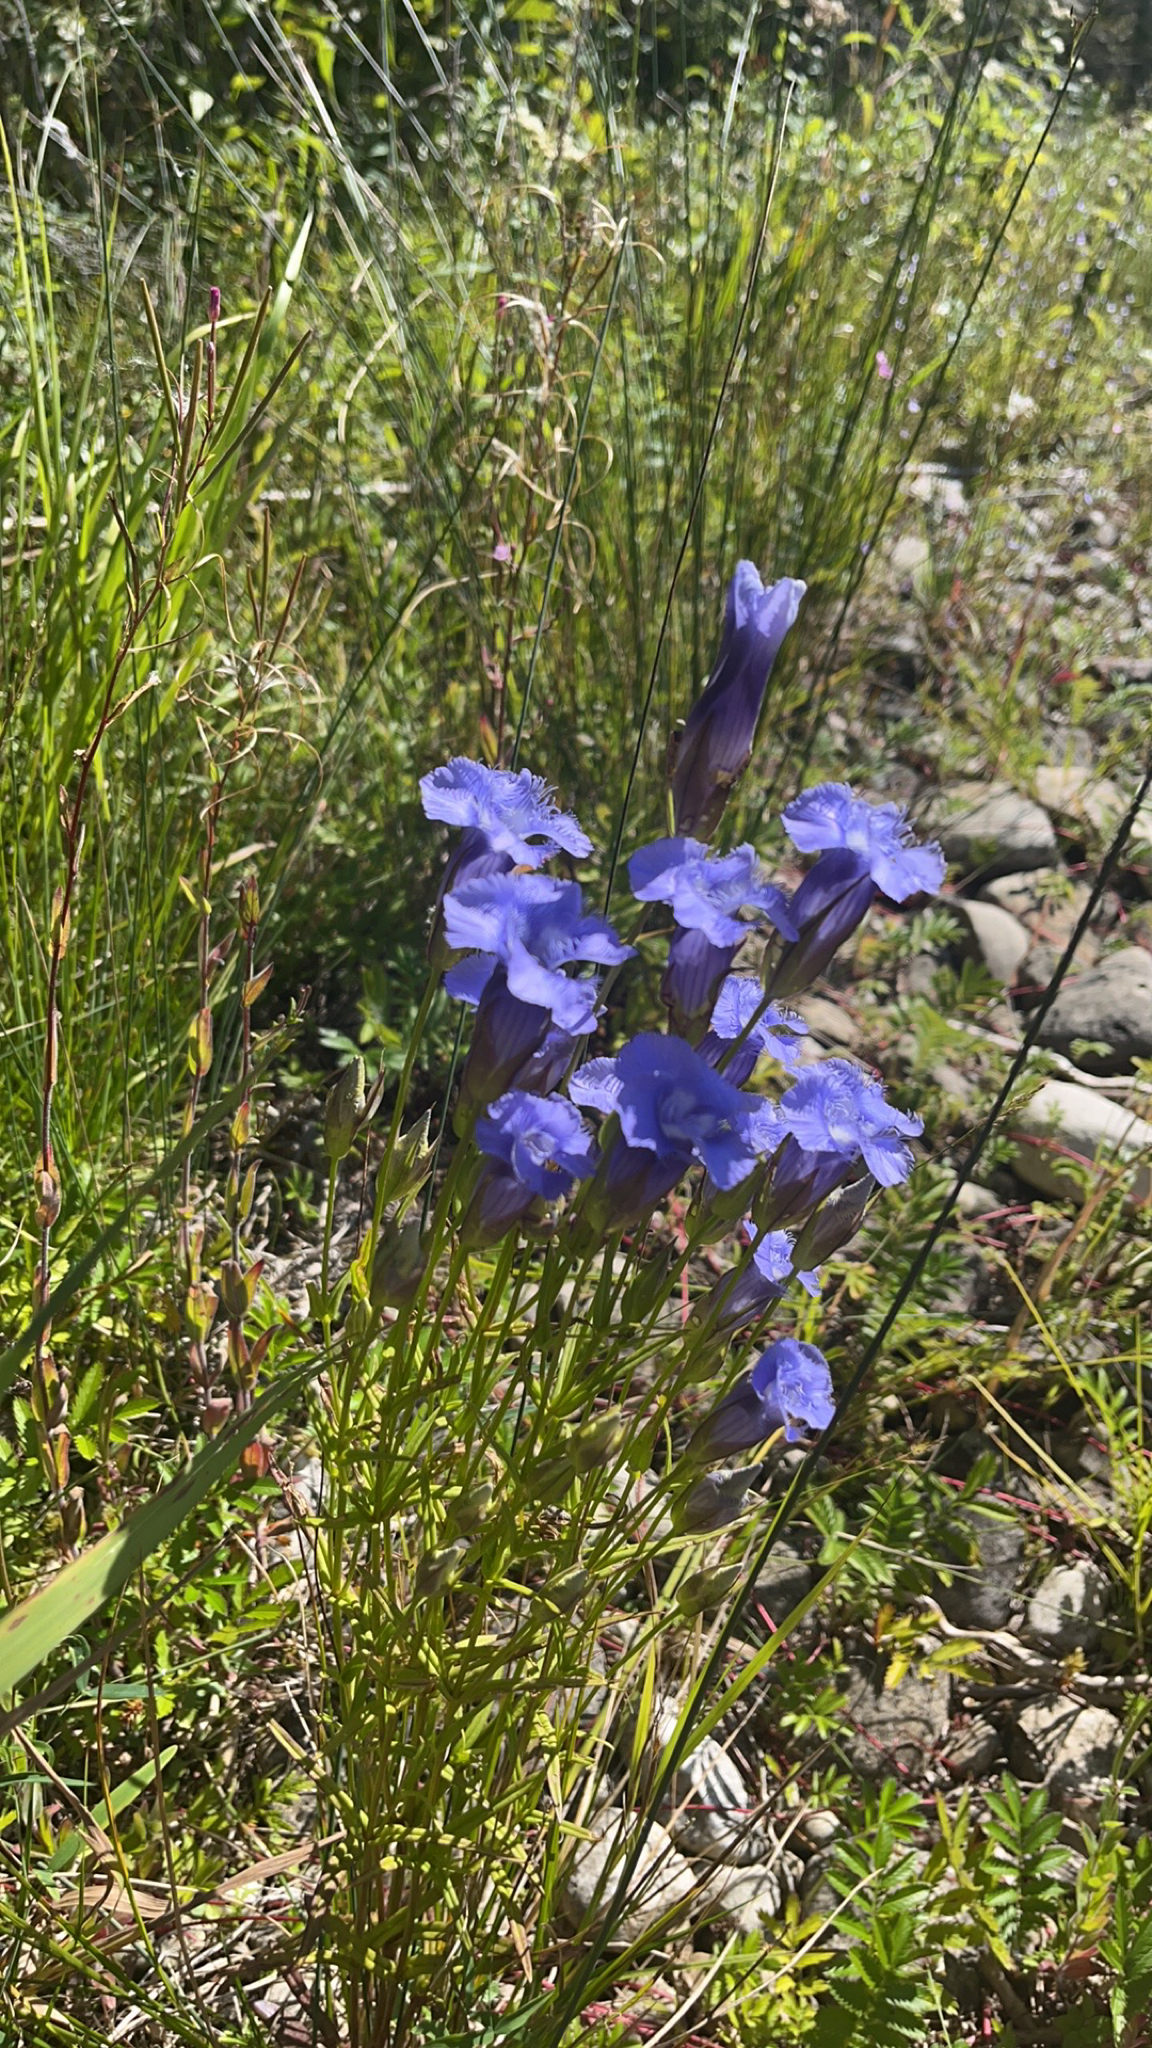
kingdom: Plantae
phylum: Tracheophyta
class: Magnoliopsida
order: Gentianales
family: Gentianaceae
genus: Gentianopsis
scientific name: Gentianopsis virgata
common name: Lesser fringed-gentian
